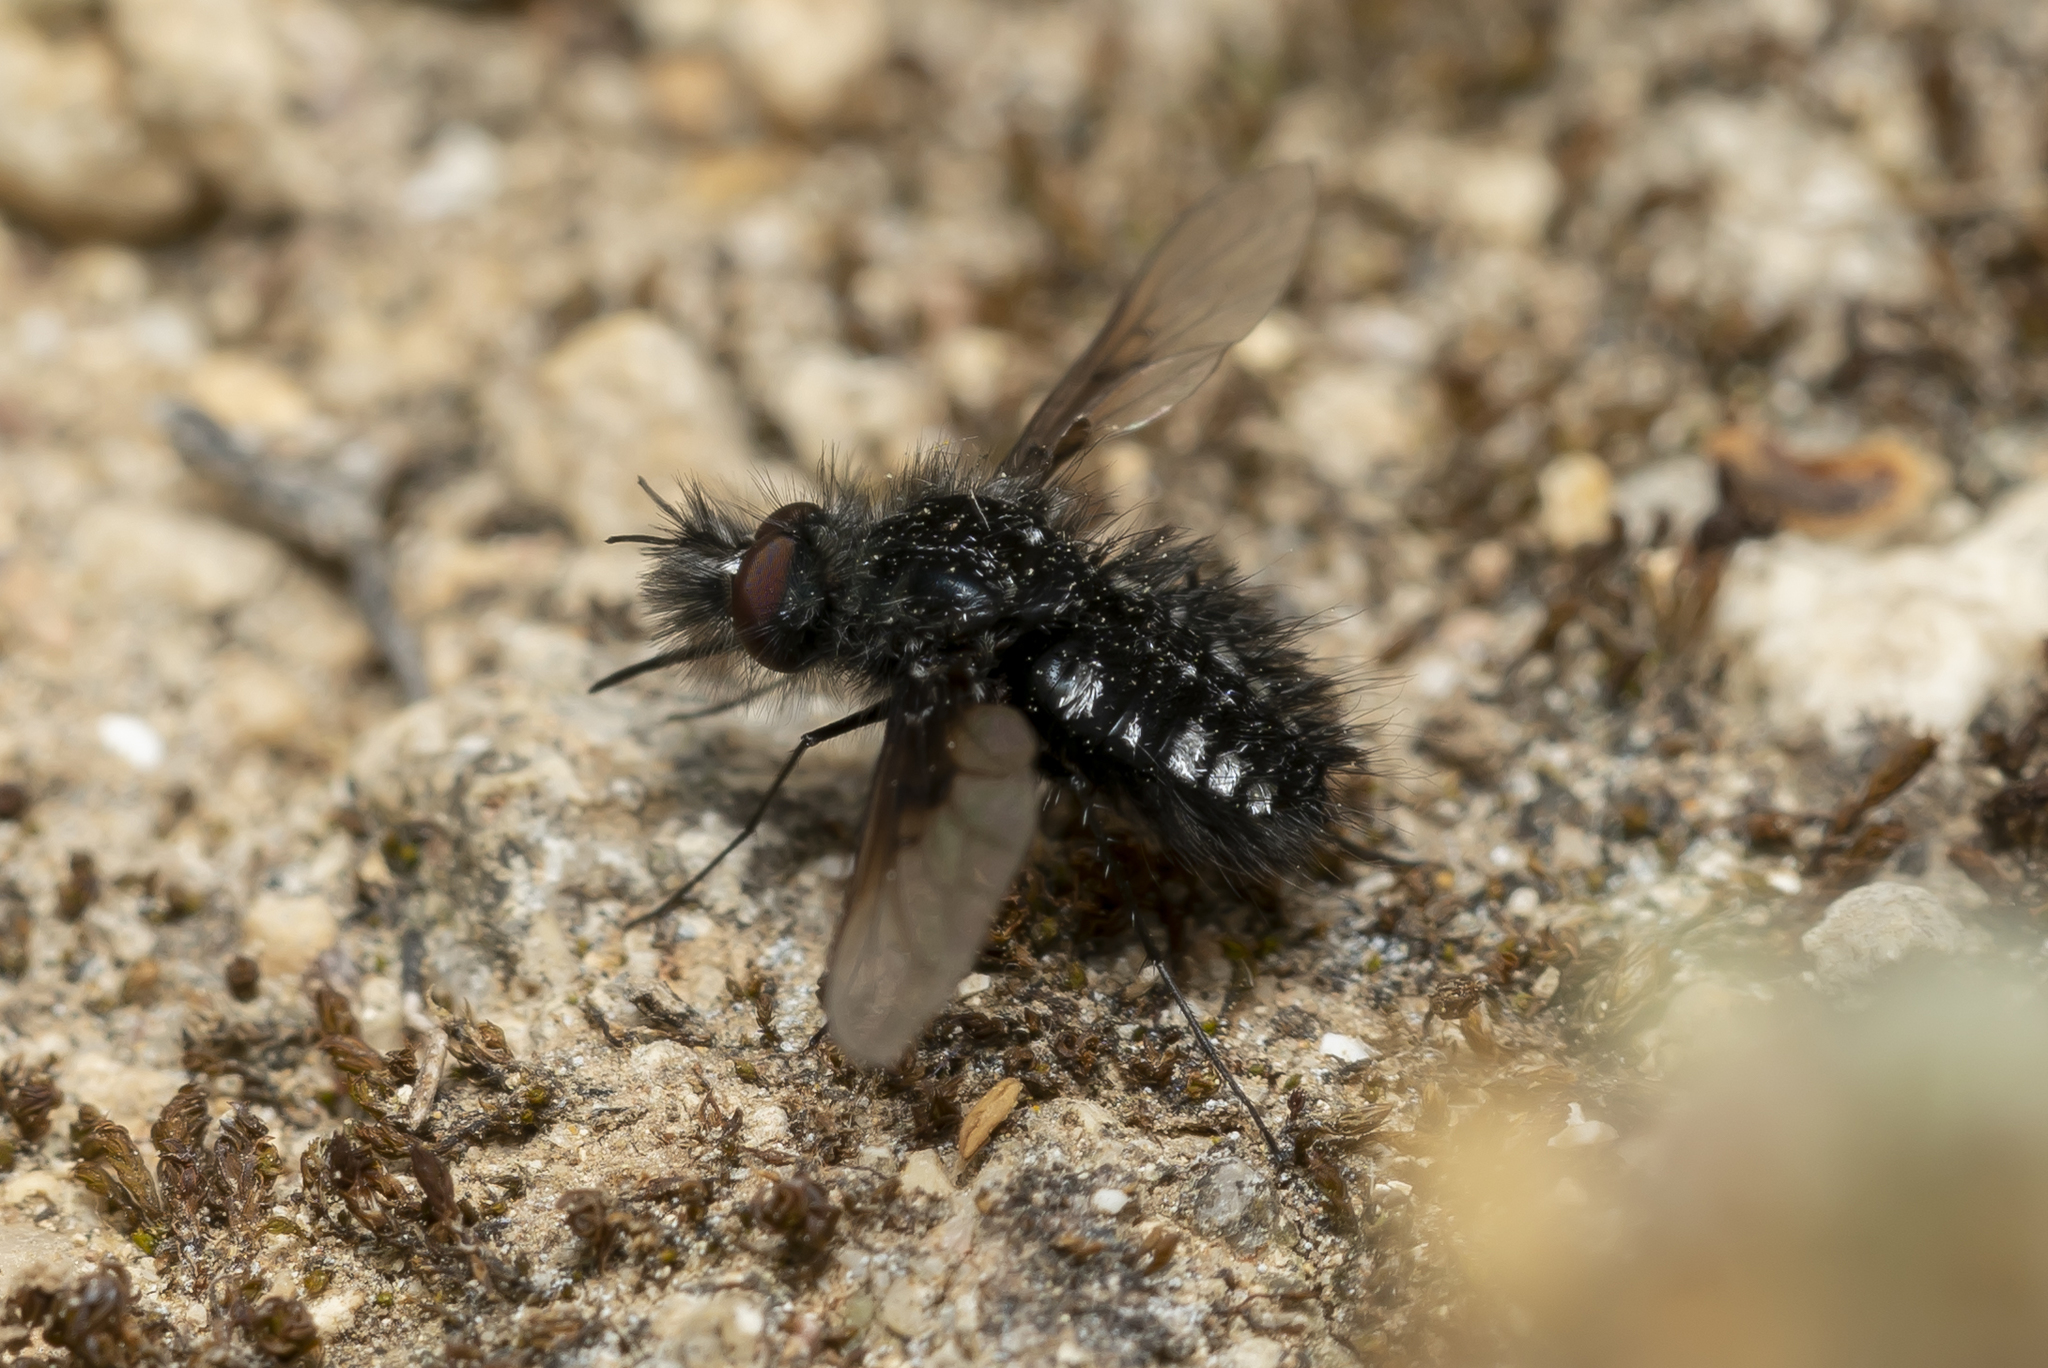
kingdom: Animalia
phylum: Arthropoda
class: Insecta
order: Diptera
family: Bombyliidae
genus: Bombylella
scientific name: Bombylella atra
